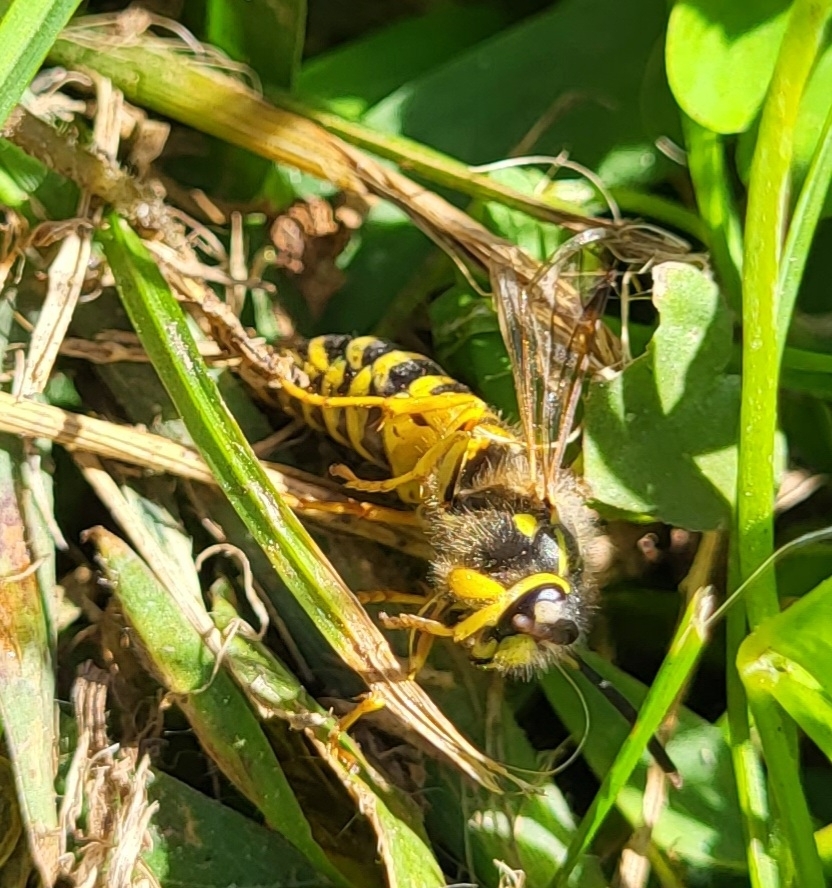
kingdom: Animalia
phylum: Arthropoda
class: Insecta
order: Hymenoptera
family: Vespidae
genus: Vespula
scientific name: Vespula squamosa
